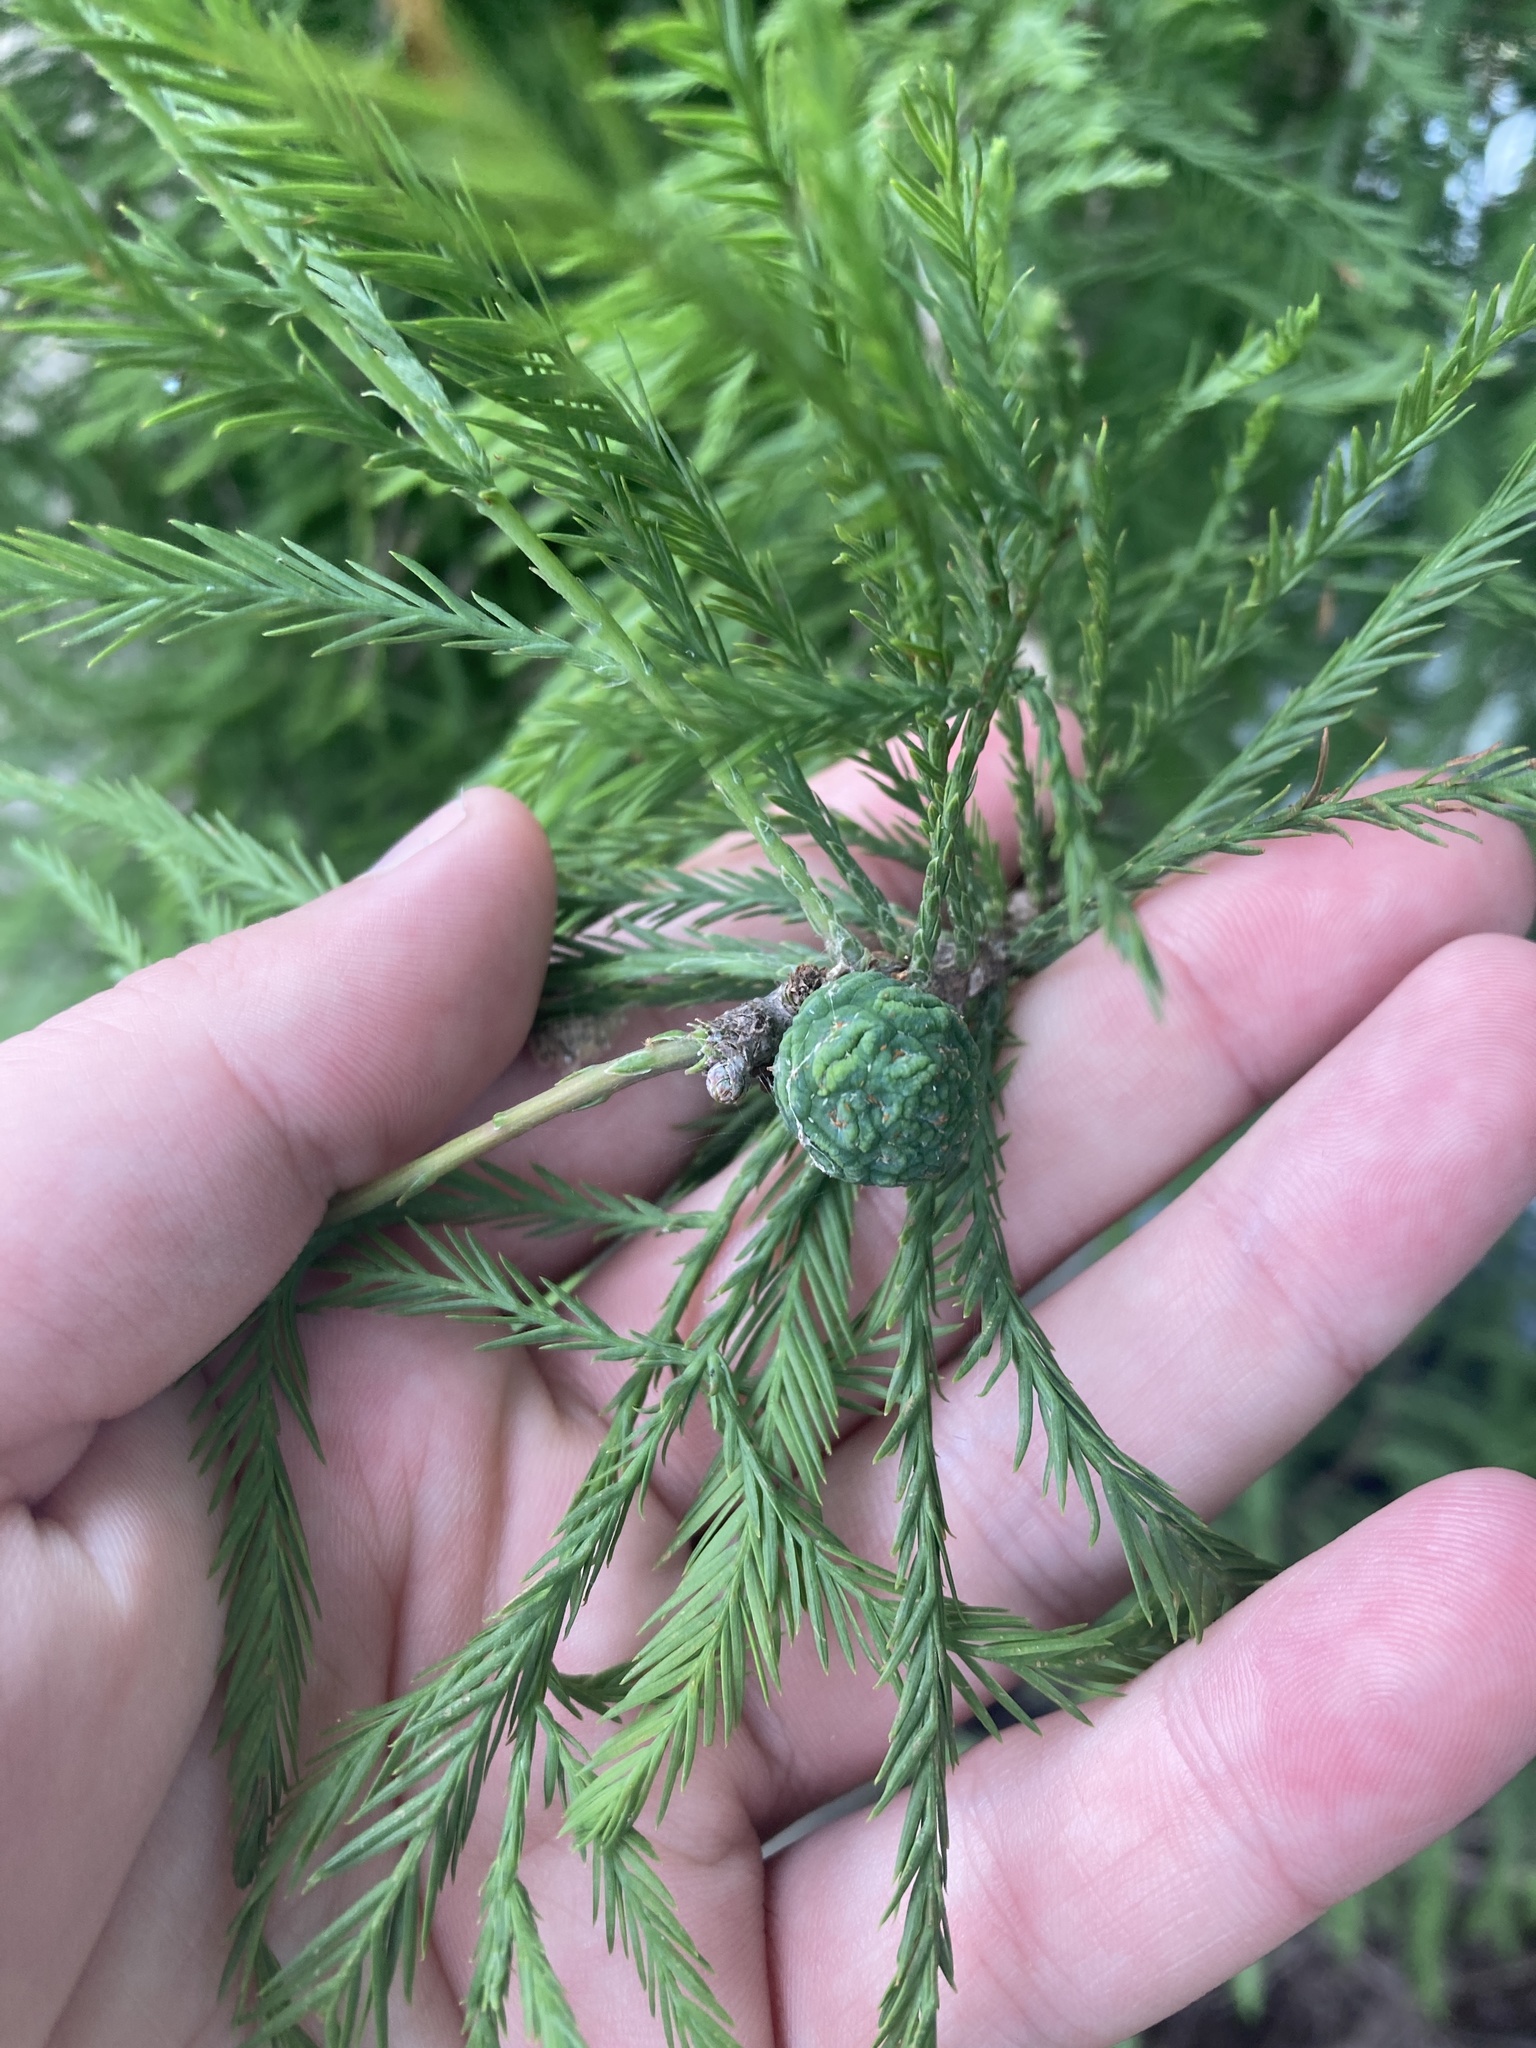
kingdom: Plantae
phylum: Tracheophyta
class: Pinopsida
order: Pinales
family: Cupressaceae
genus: Taxodium
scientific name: Taxodium distichum
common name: Bald cypress
